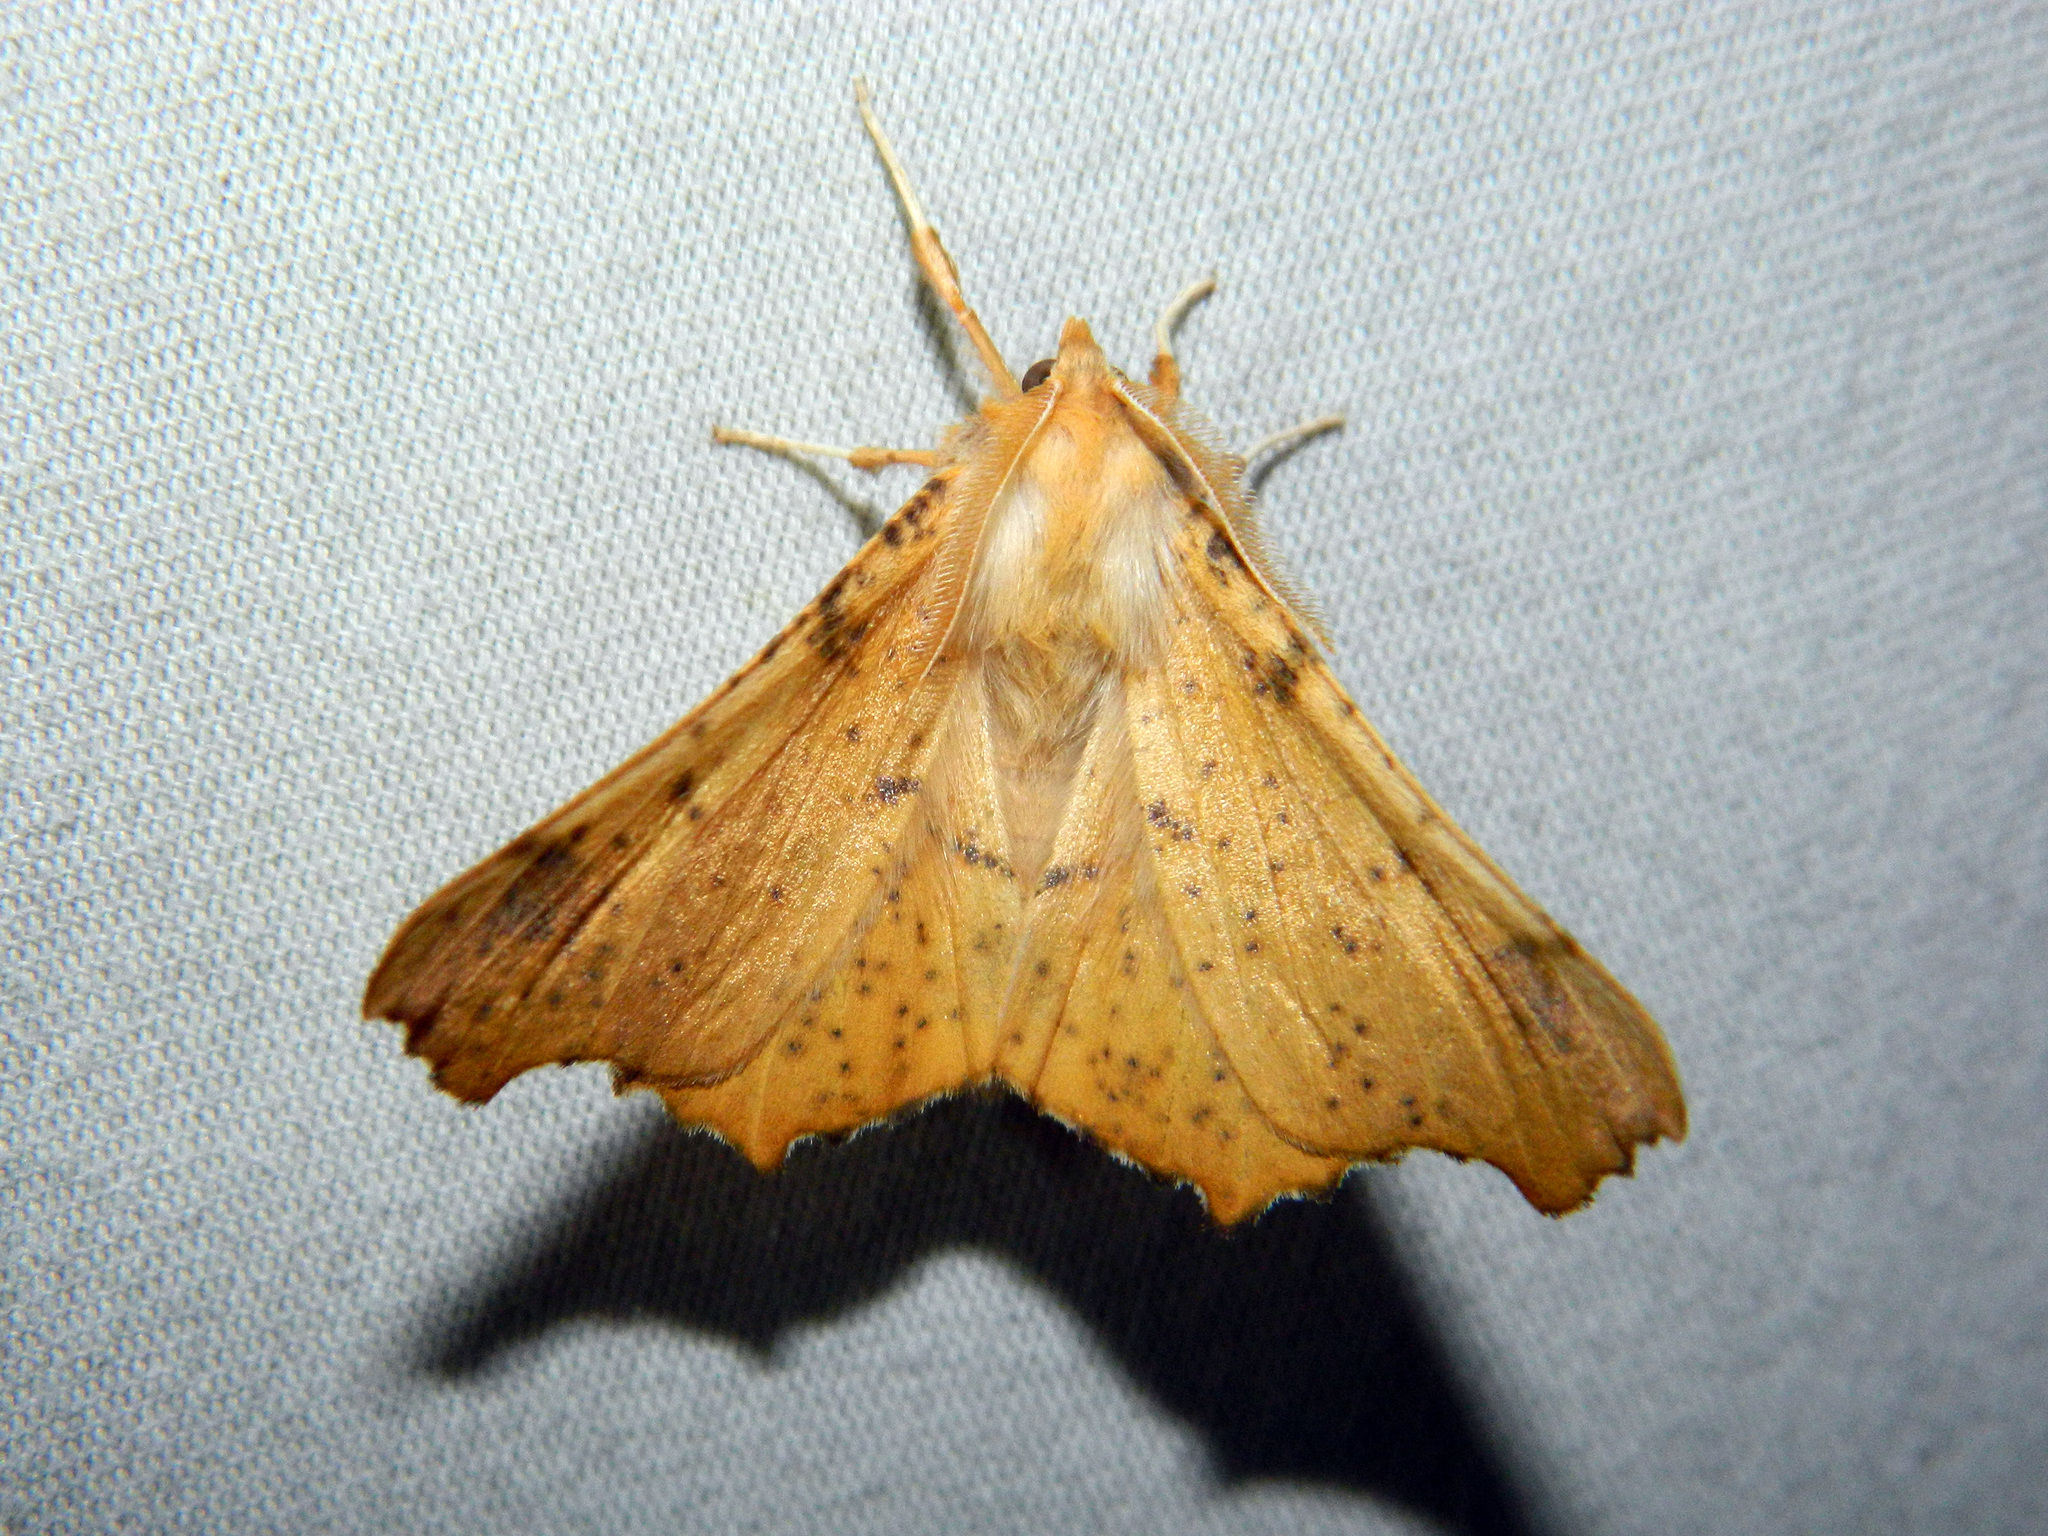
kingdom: Animalia
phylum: Arthropoda
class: Insecta
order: Lepidoptera
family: Geometridae
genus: Ennomos
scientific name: Ennomos magnaria
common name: Maple spanworm
